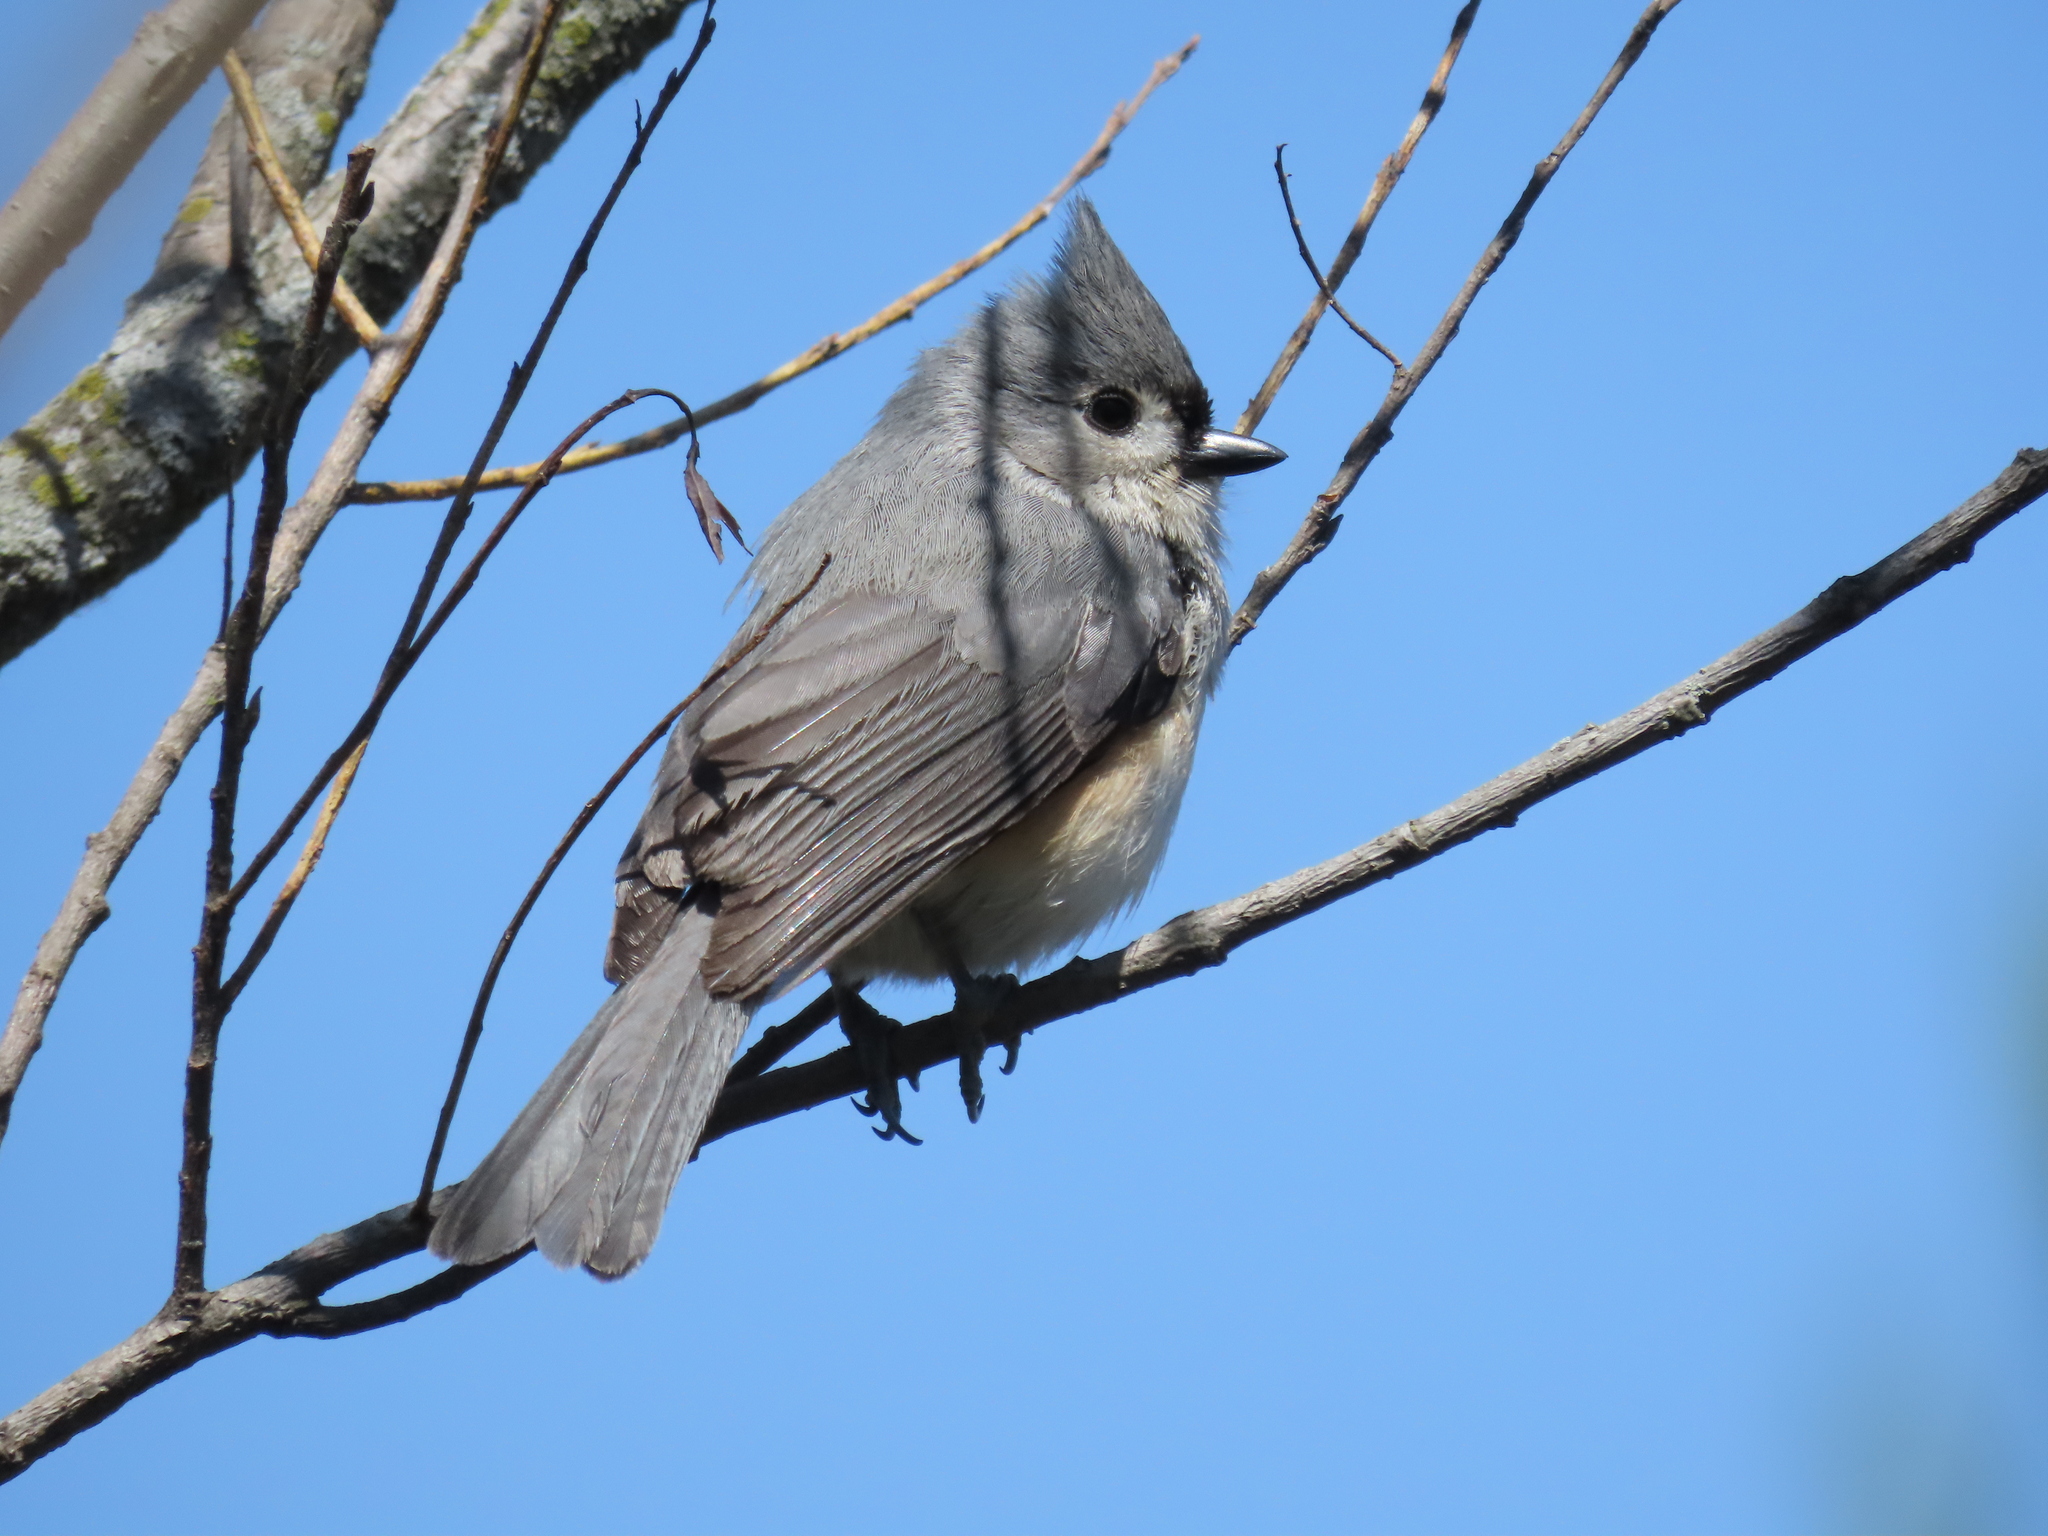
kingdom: Animalia
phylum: Chordata
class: Aves
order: Passeriformes
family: Paridae
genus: Baeolophus
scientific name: Baeolophus bicolor
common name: Tufted titmouse
